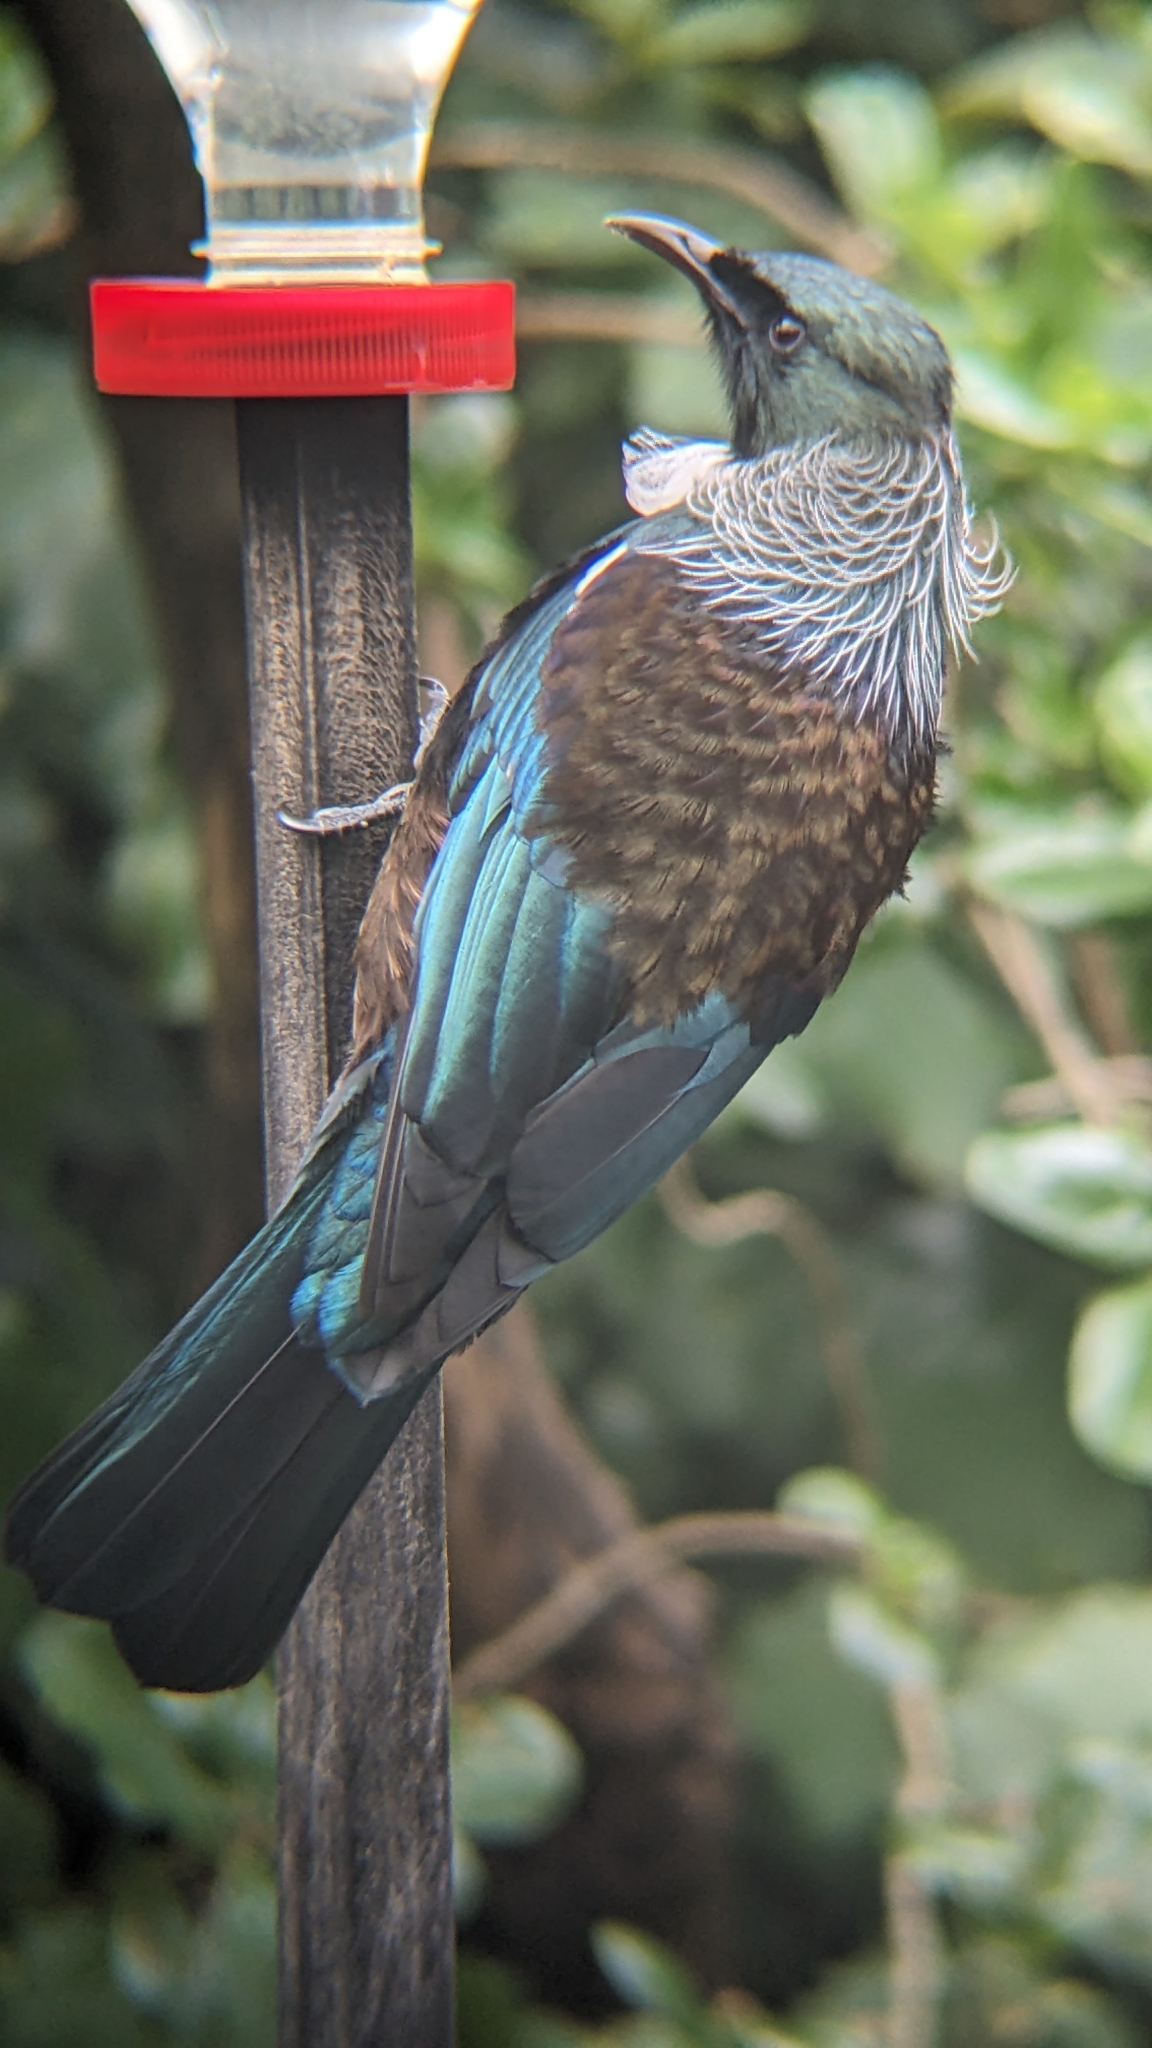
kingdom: Animalia
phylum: Chordata
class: Aves
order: Passeriformes
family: Meliphagidae
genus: Prosthemadera
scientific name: Prosthemadera novaeseelandiae
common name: Tui
